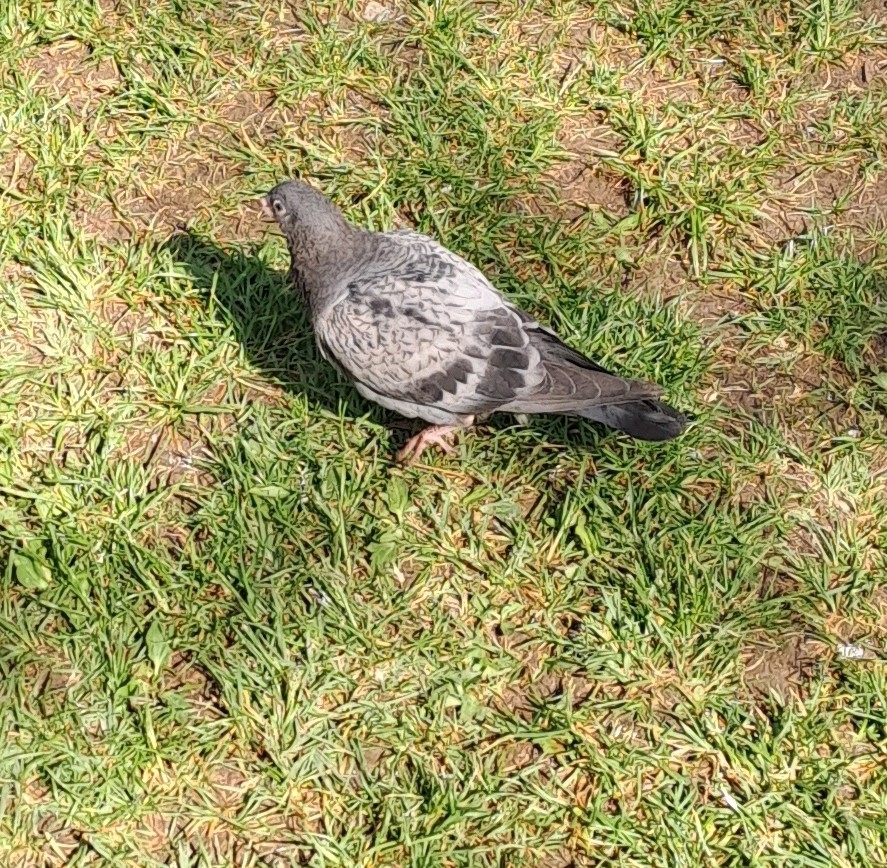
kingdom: Animalia
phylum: Chordata
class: Aves
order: Columbiformes
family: Columbidae
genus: Columba
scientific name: Columba livia
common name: Rock pigeon
